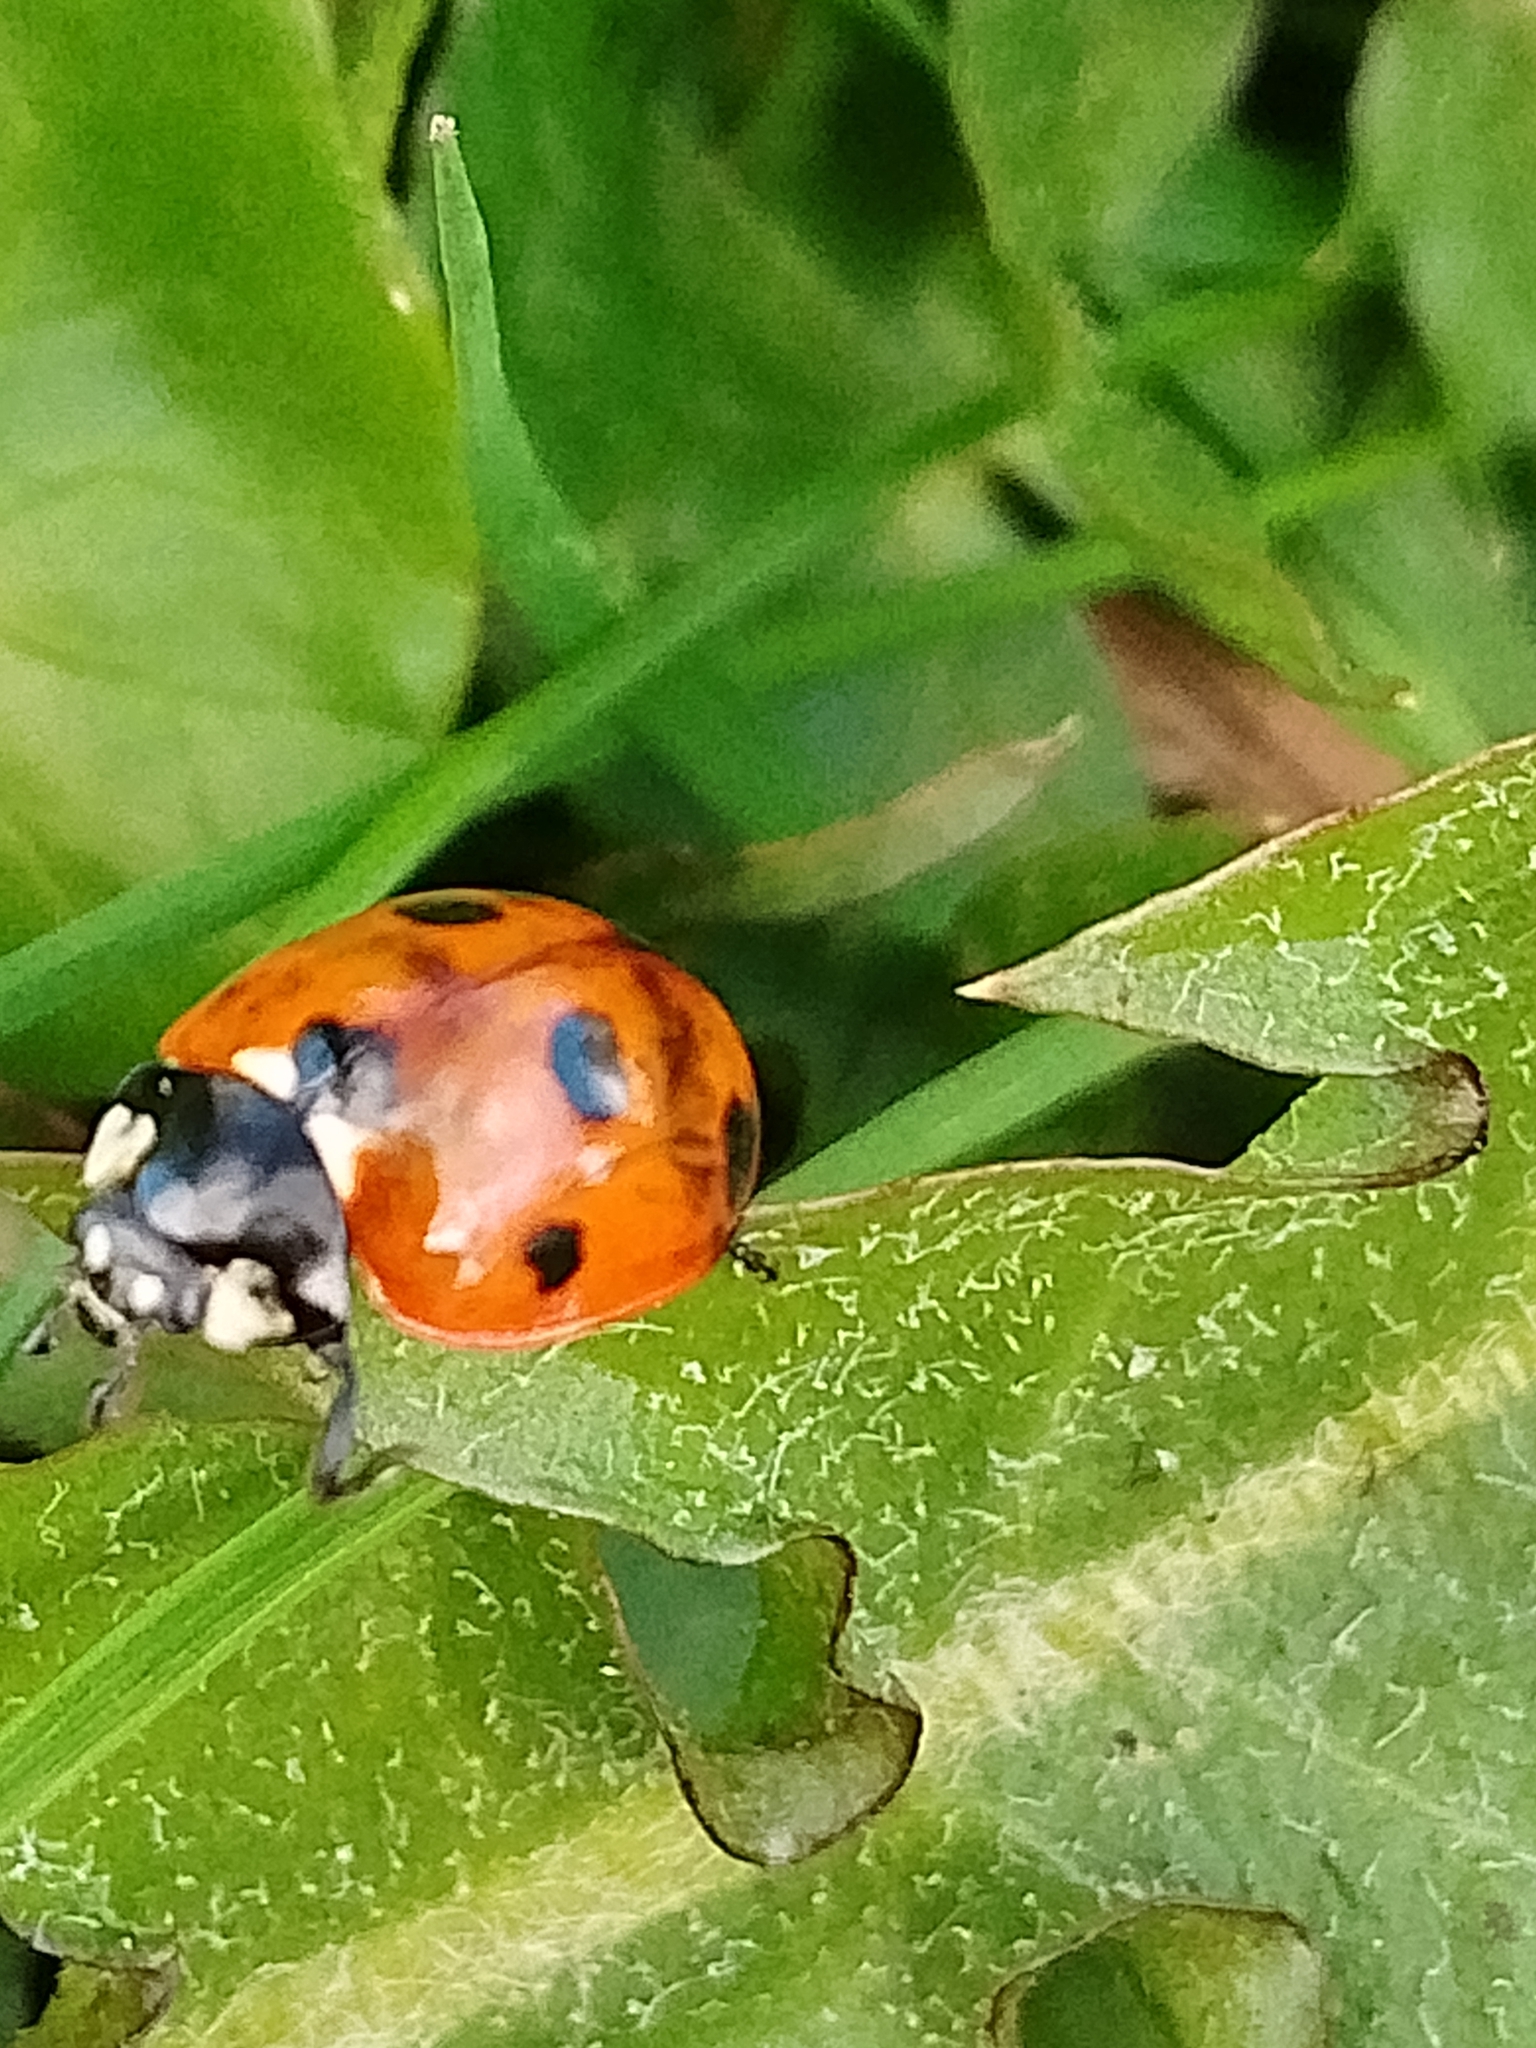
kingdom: Animalia
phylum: Arthropoda
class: Insecta
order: Coleoptera
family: Coccinellidae
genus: Coccinella
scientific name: Coccinella septempunctata
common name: Sevenspotted lady beetle
